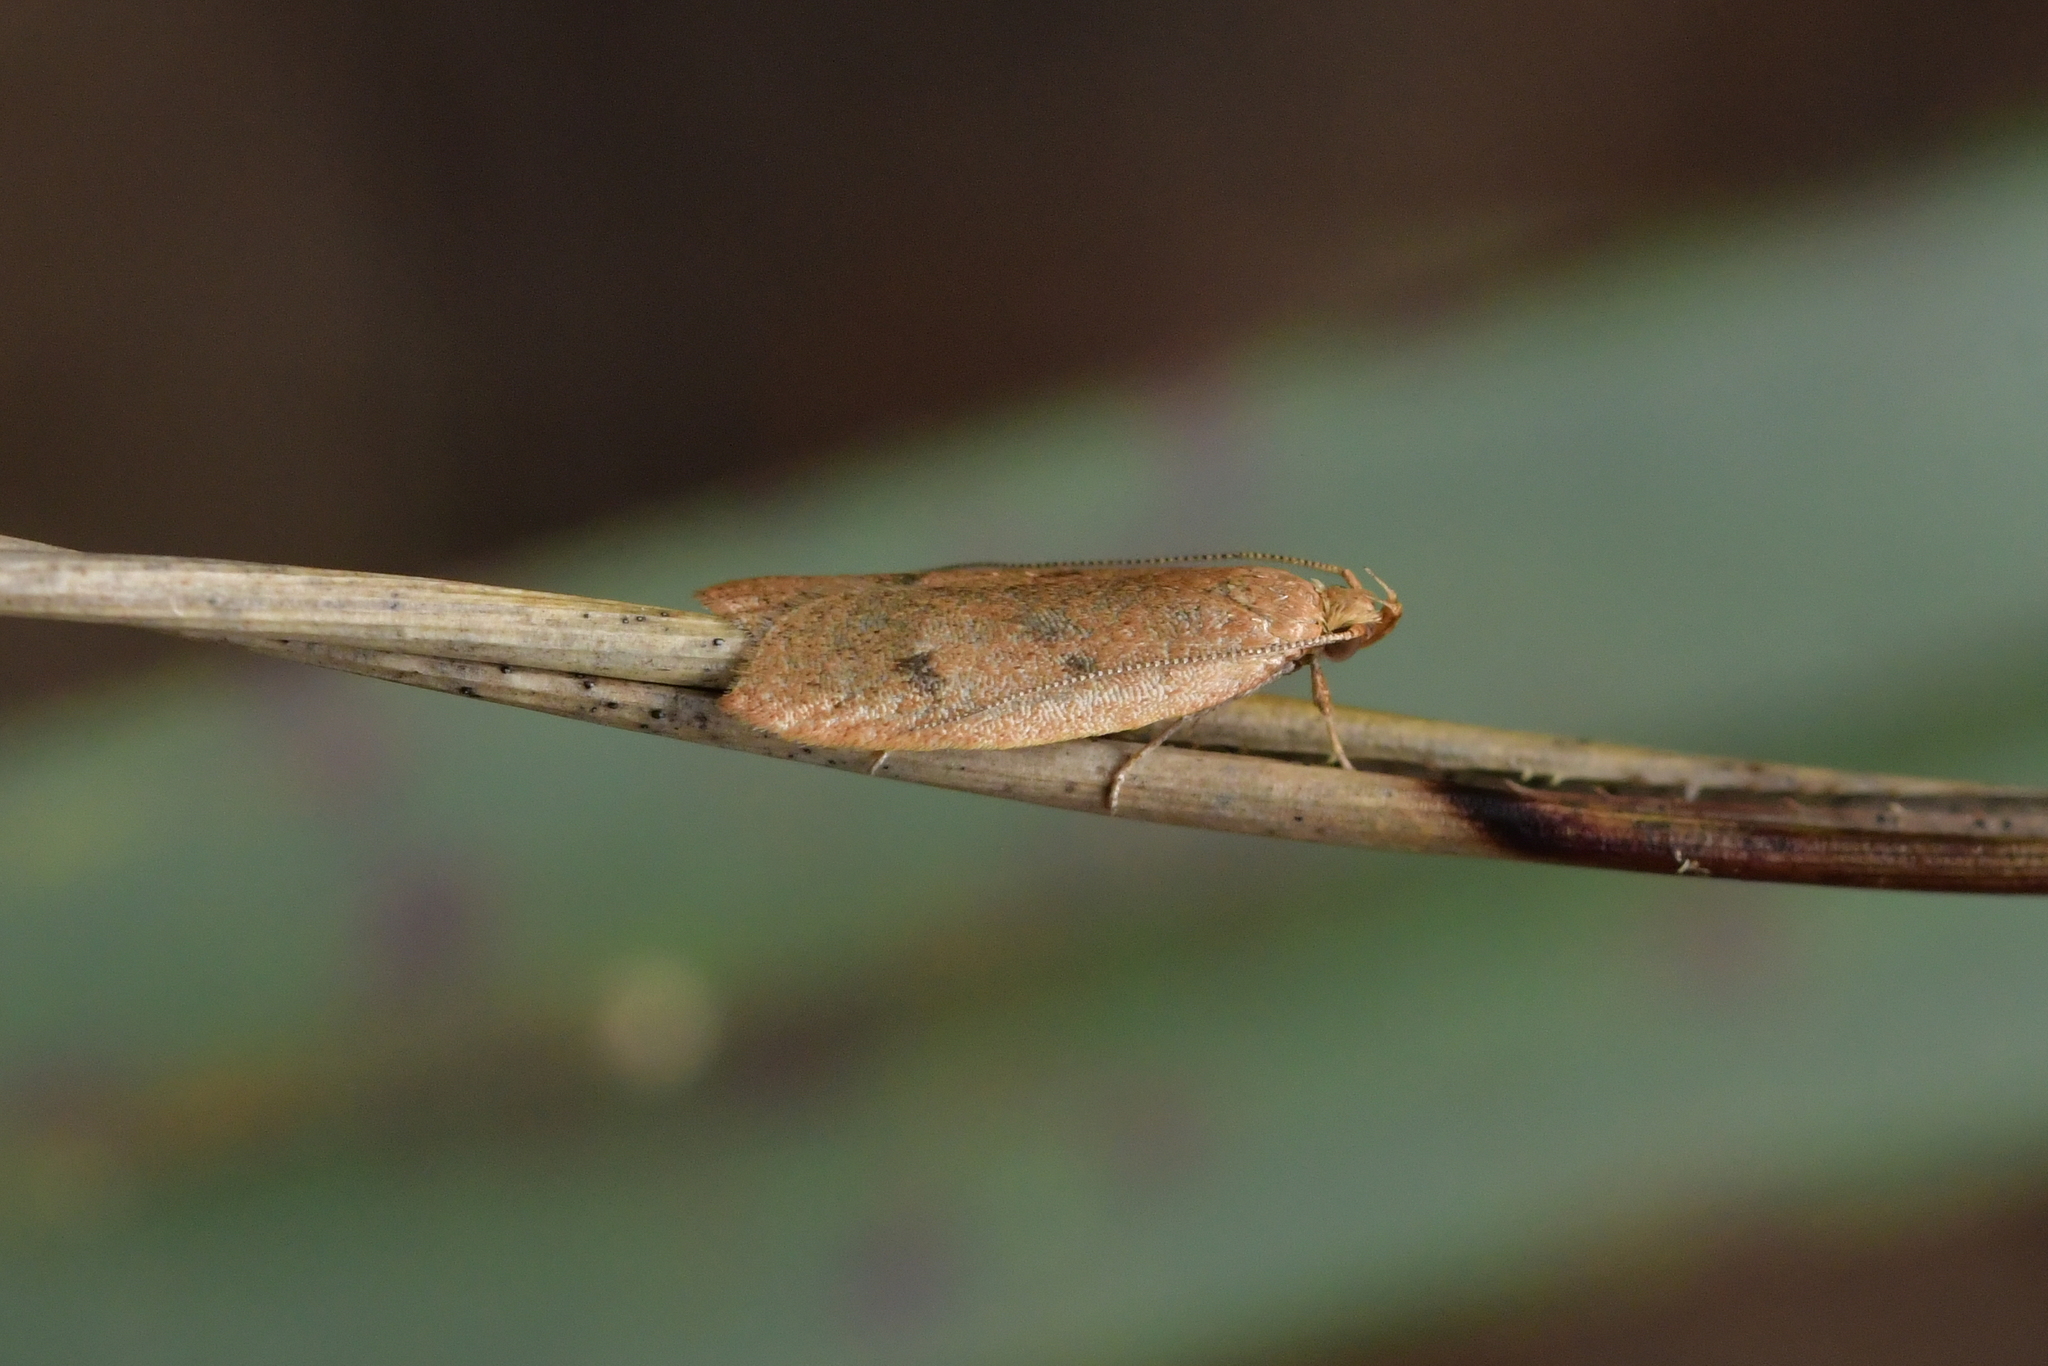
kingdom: Animalia
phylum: Arthropoda
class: Insecta
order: Lepidoptera
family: Oecophoridae
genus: Gymnobathra
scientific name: Gymnobathra sarcoxantha
